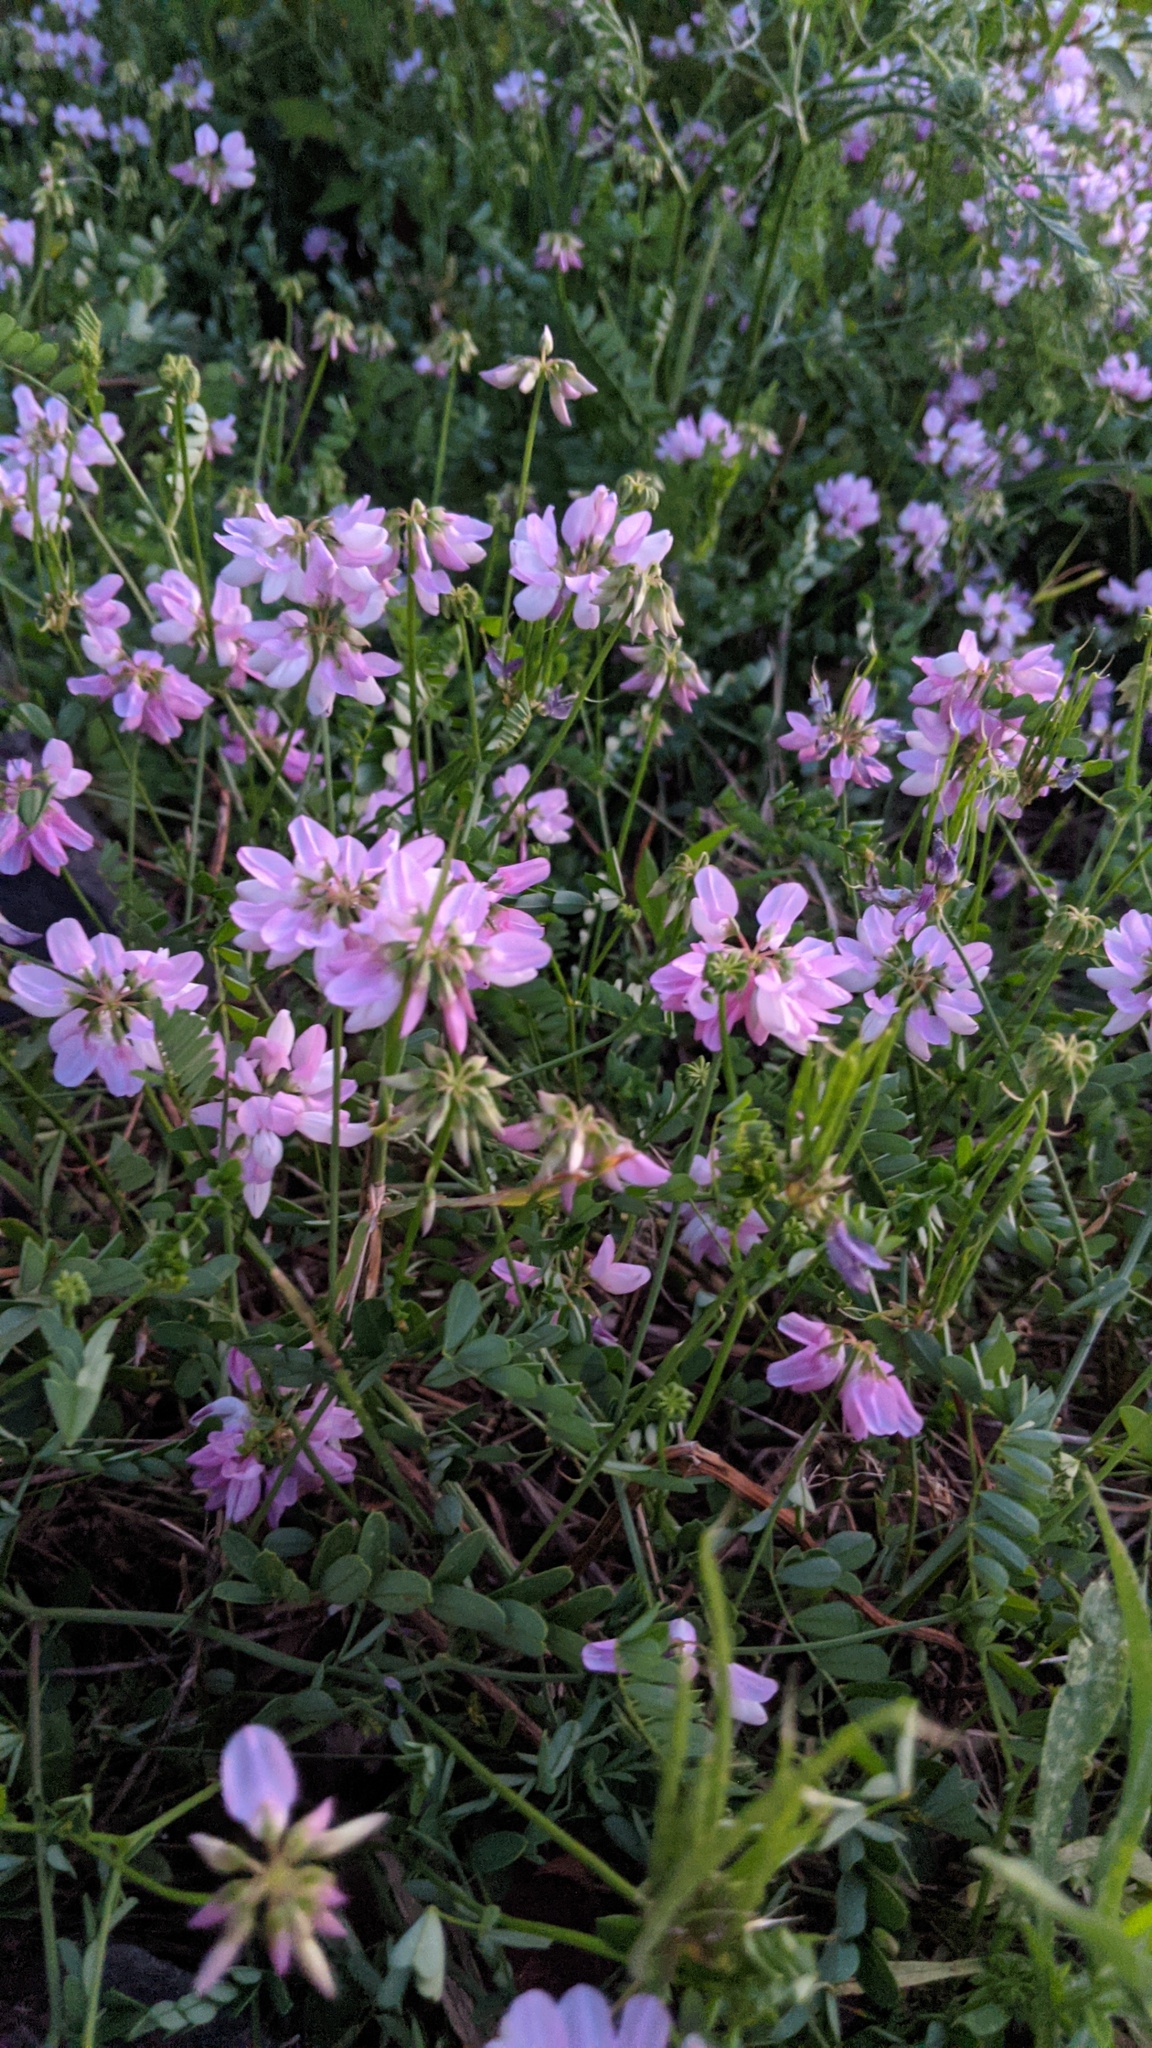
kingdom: Plantae
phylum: Tracheophyta
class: Magnoliopsida
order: Fabales
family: Fabaceae
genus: Coronilla
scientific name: Coronilla varia
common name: Crownvetch
